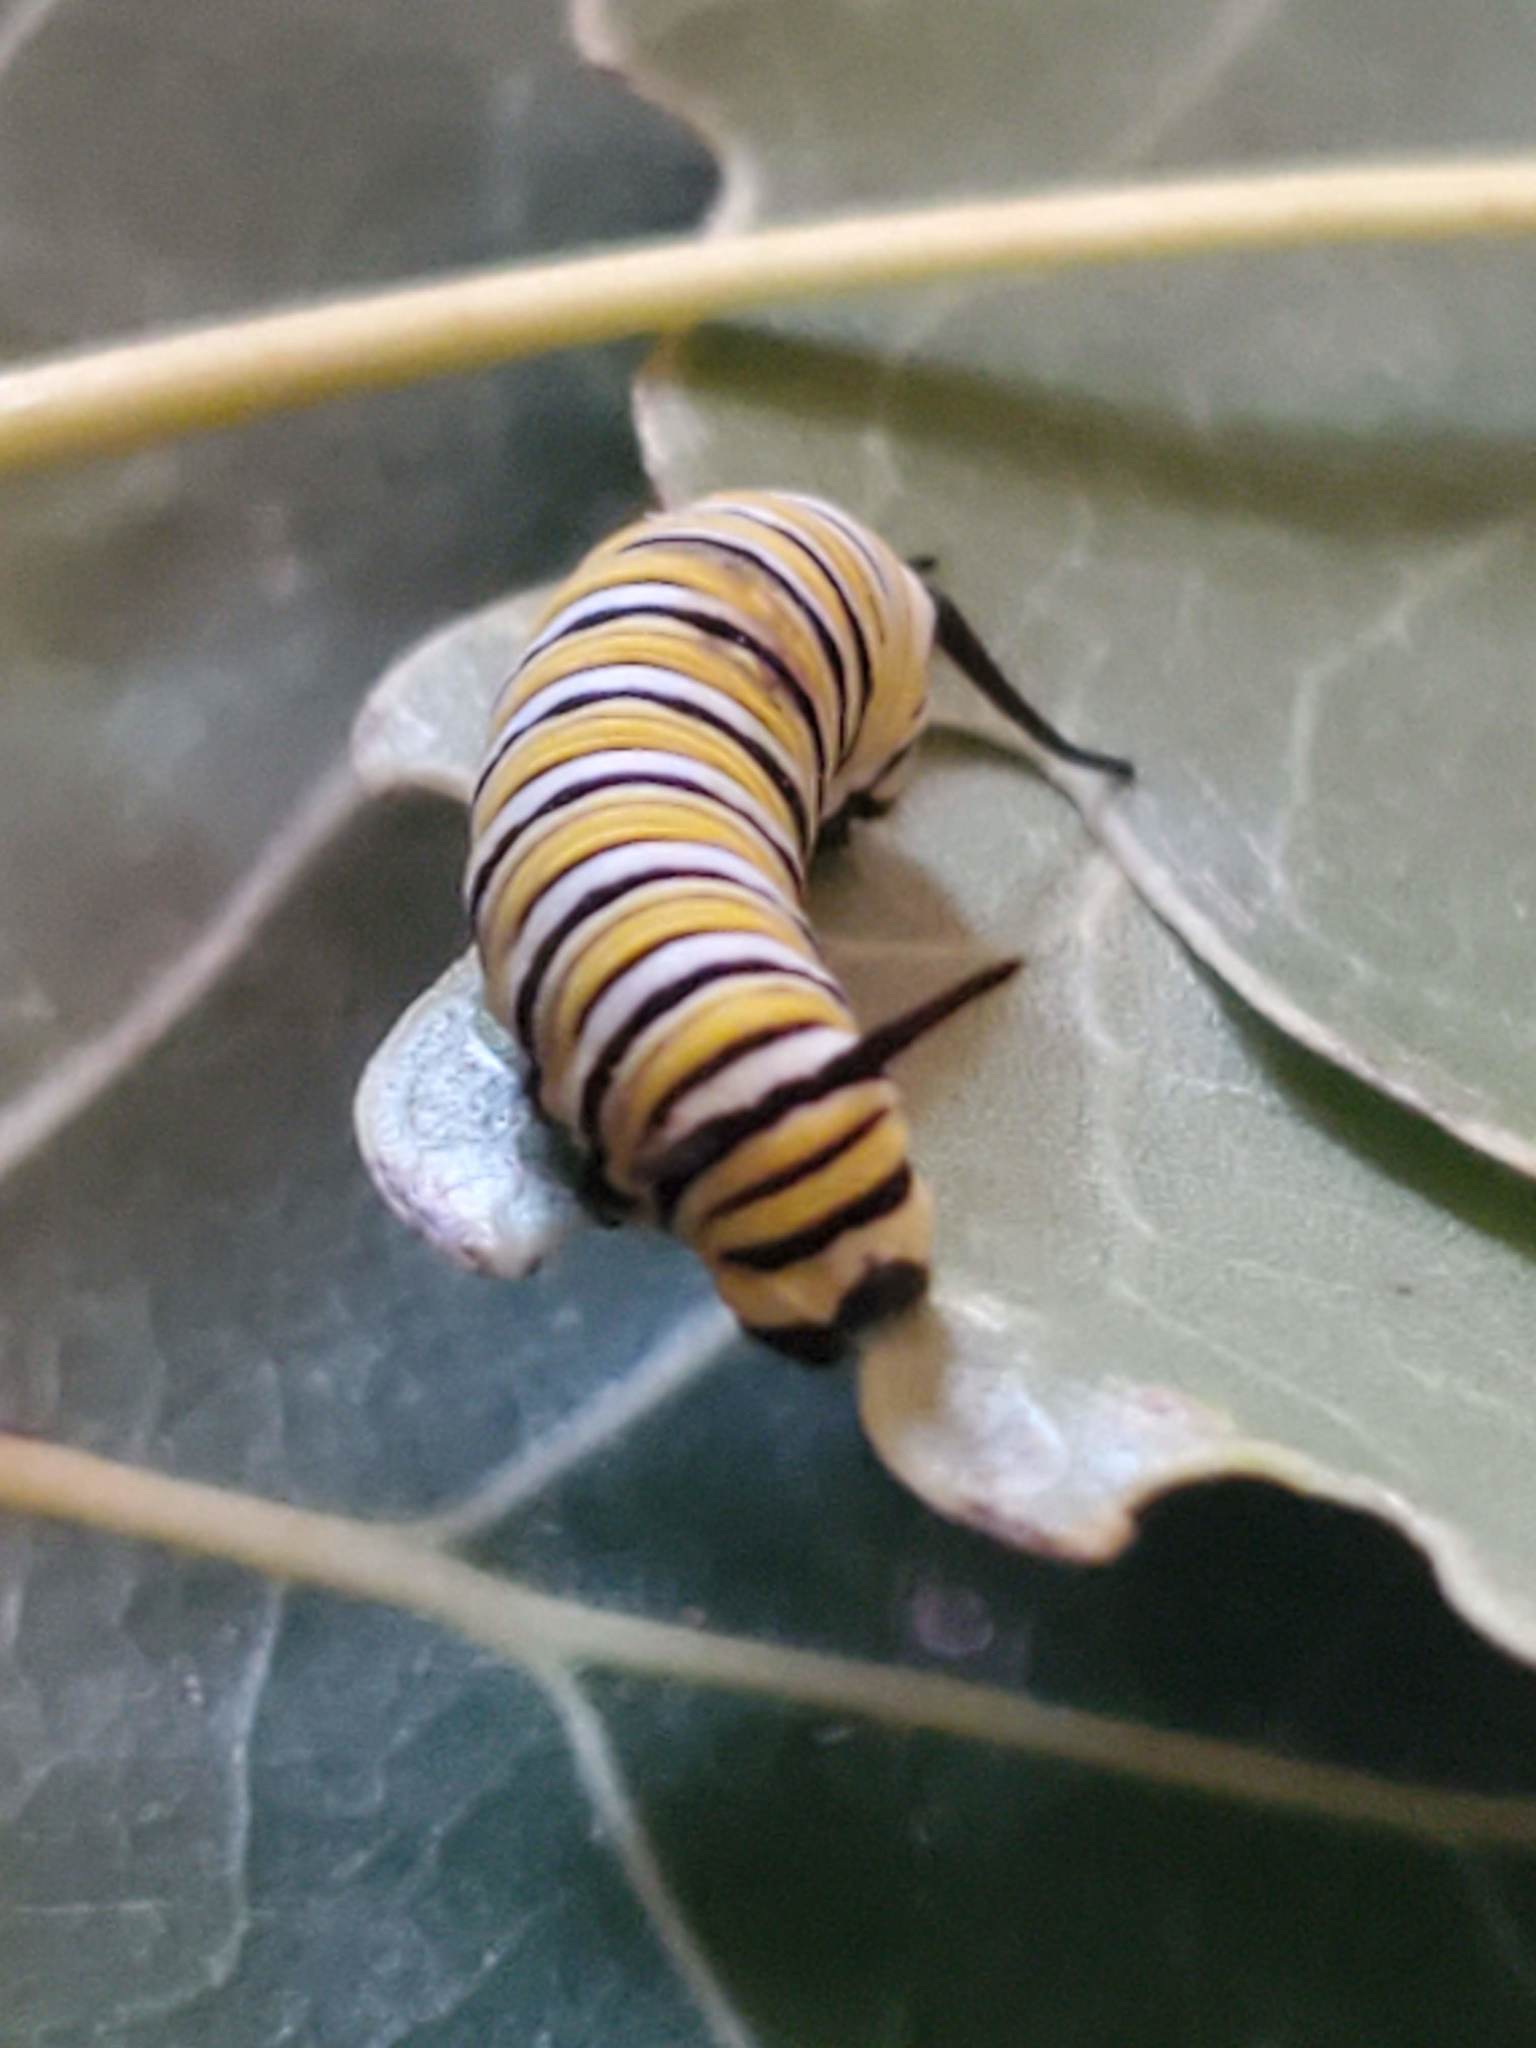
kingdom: Animalia
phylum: Arthropoda
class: Insecta
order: Lepidoptera
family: Nymphalidae
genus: Danaus
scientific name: Danaus plexippus
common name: Monarch
